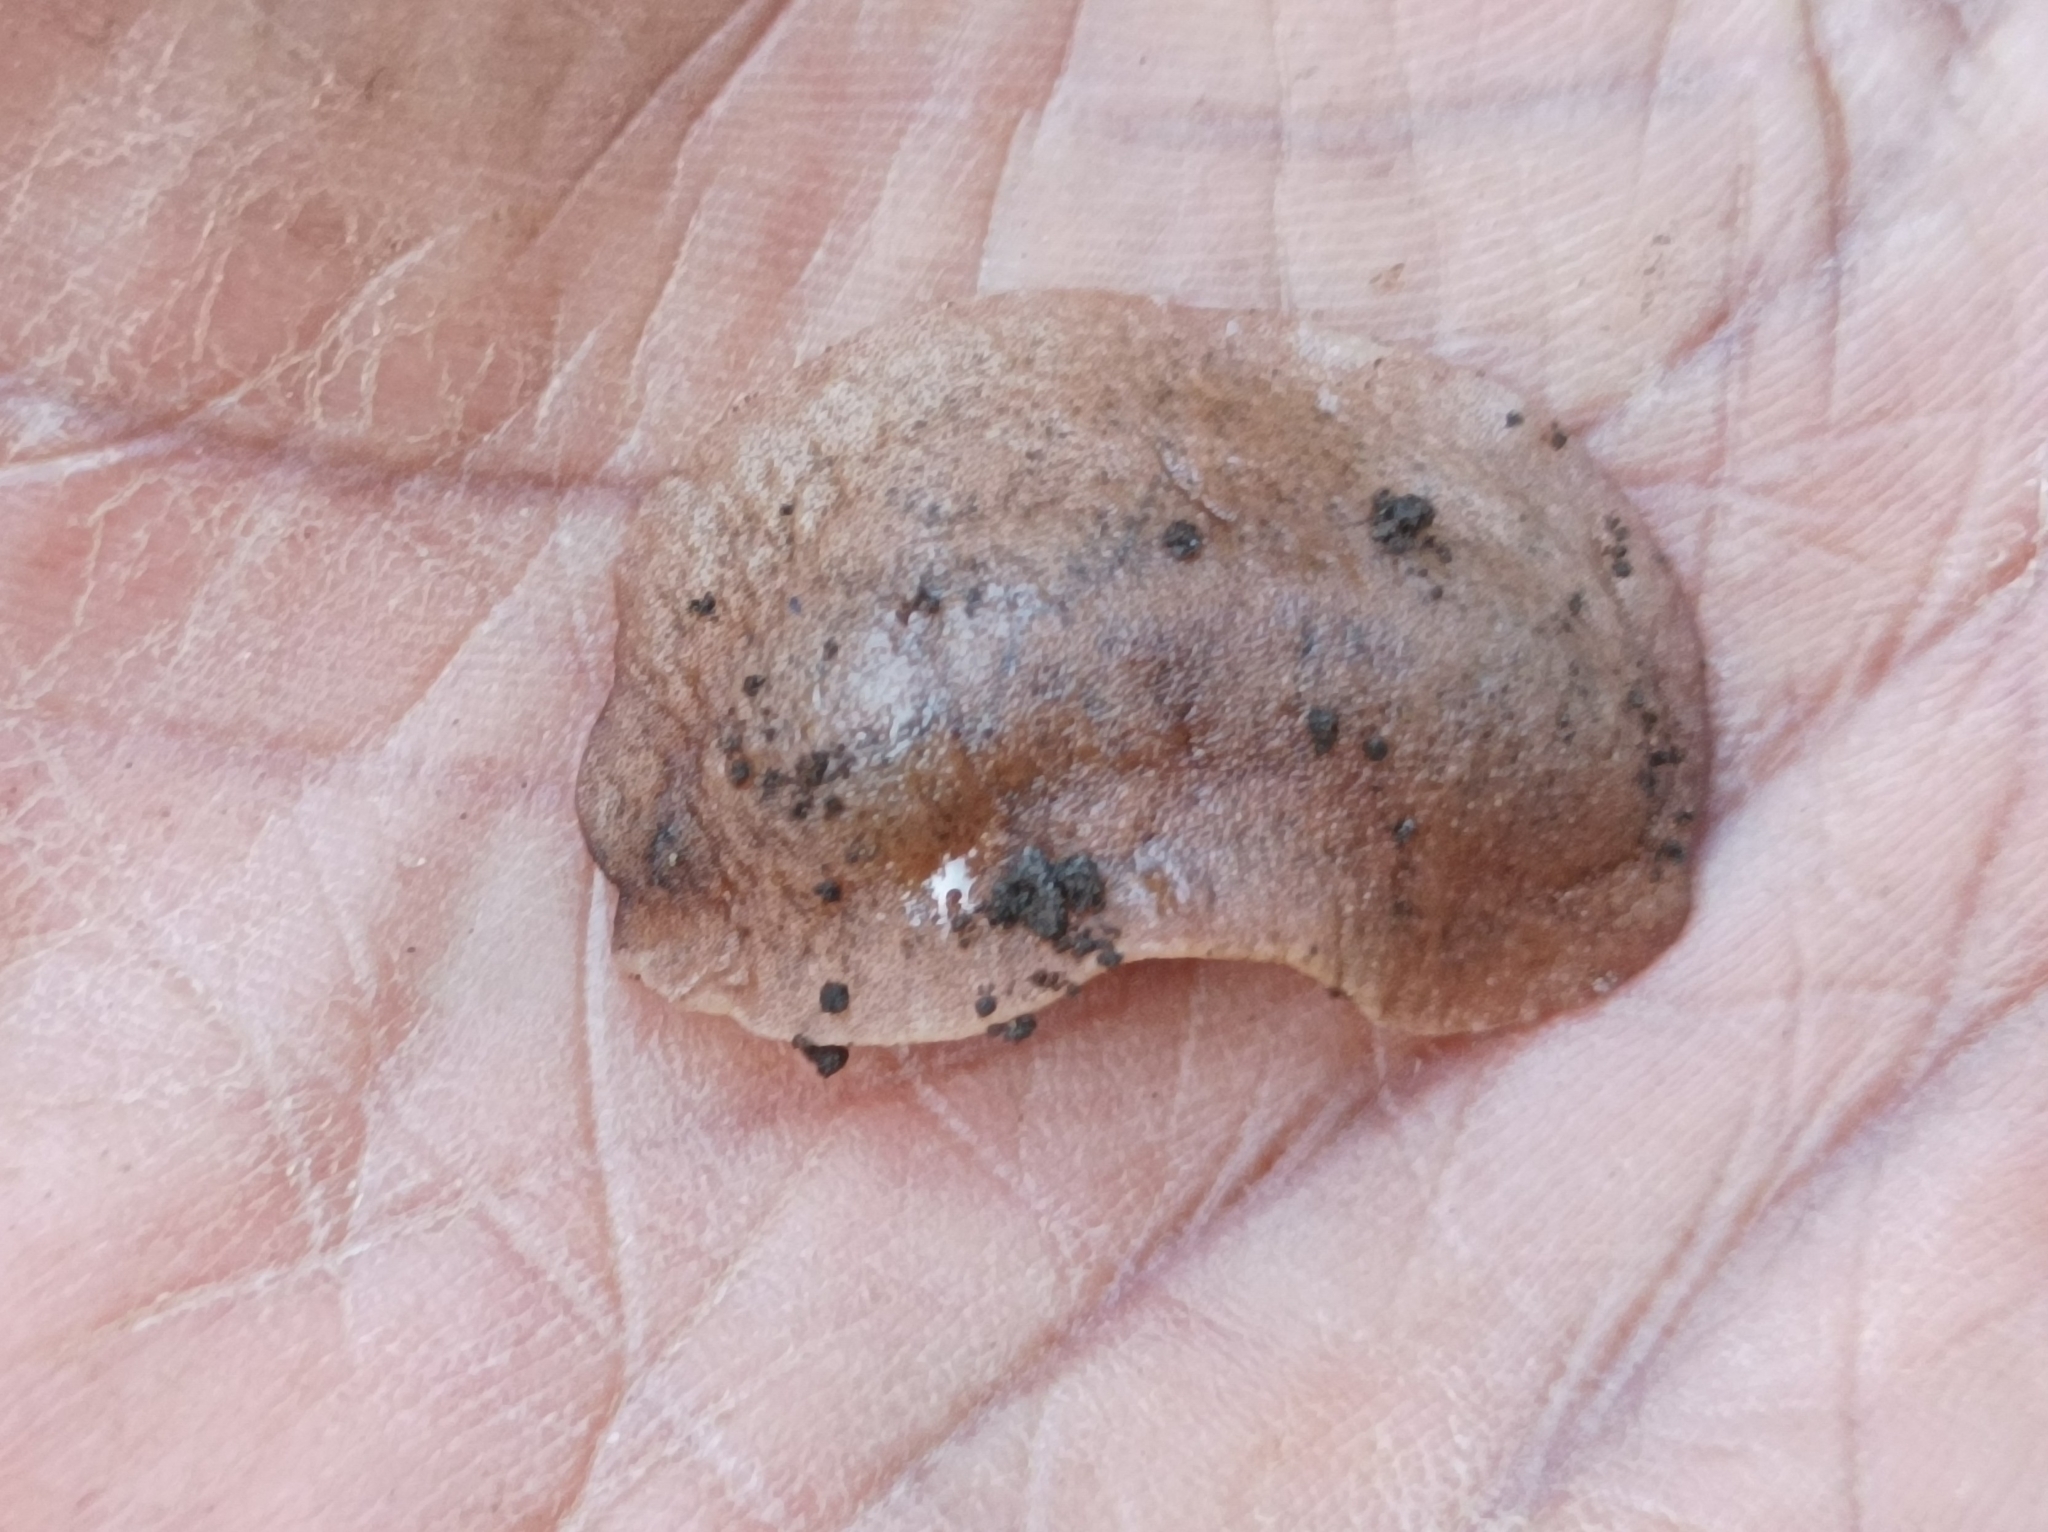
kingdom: Animalia
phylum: Mollusca
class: Gastropoda
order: Systellommatophora
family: Veronicellidae
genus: Sarasinula
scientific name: Sarasinula plebeia
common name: Caribbean leatherleaf
